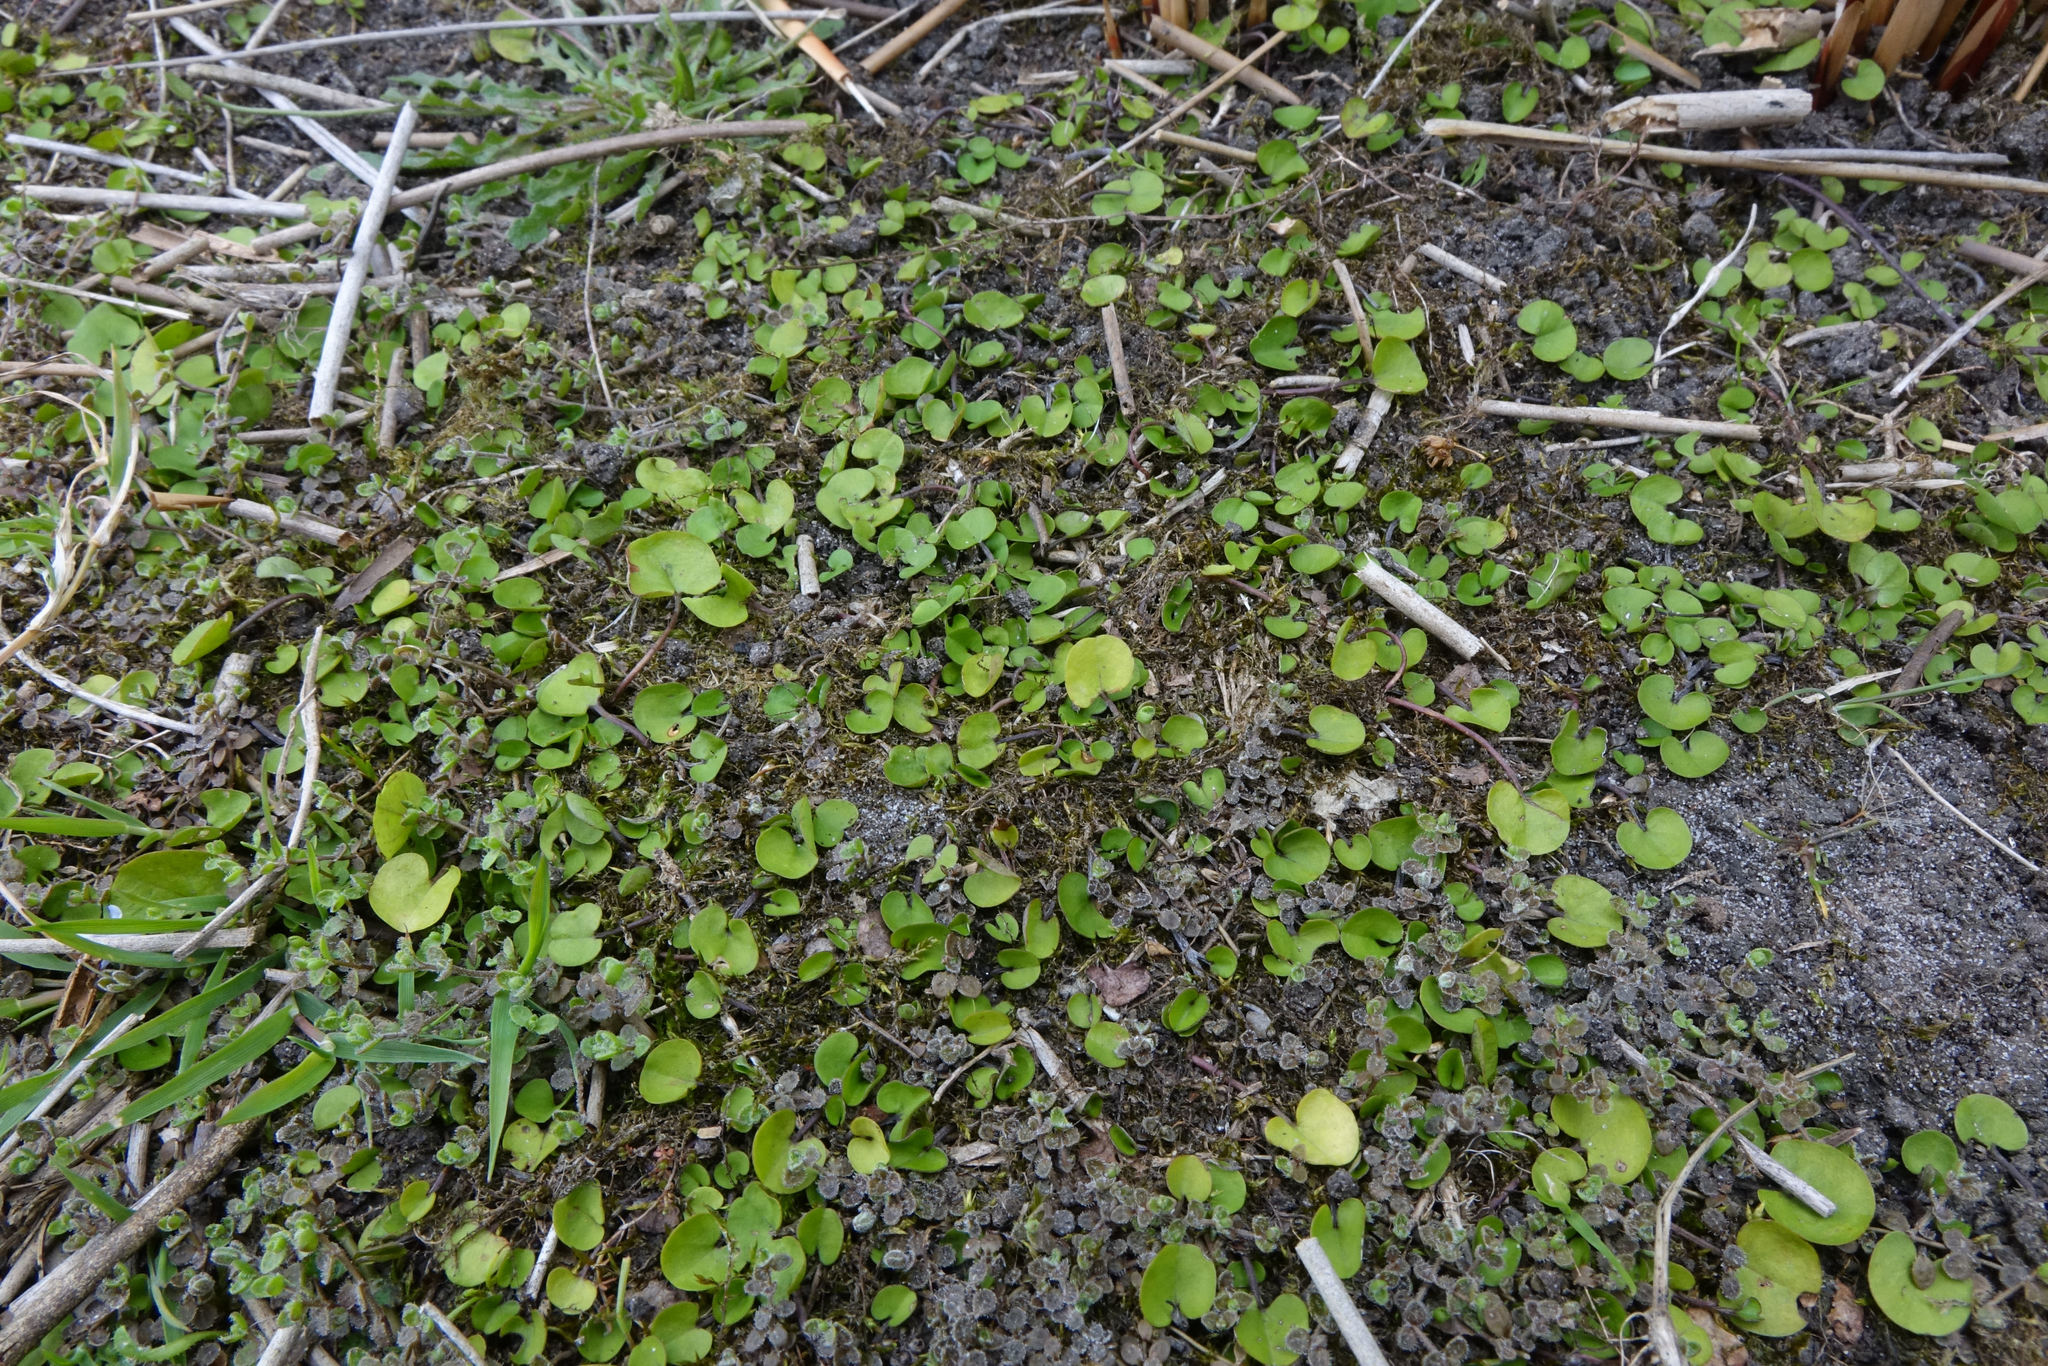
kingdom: Plantae
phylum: Tracheophyta
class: Magnoliopsida
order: Solanales
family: Convolvulaceae
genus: Dichondra
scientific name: Dichondra brevifolia
